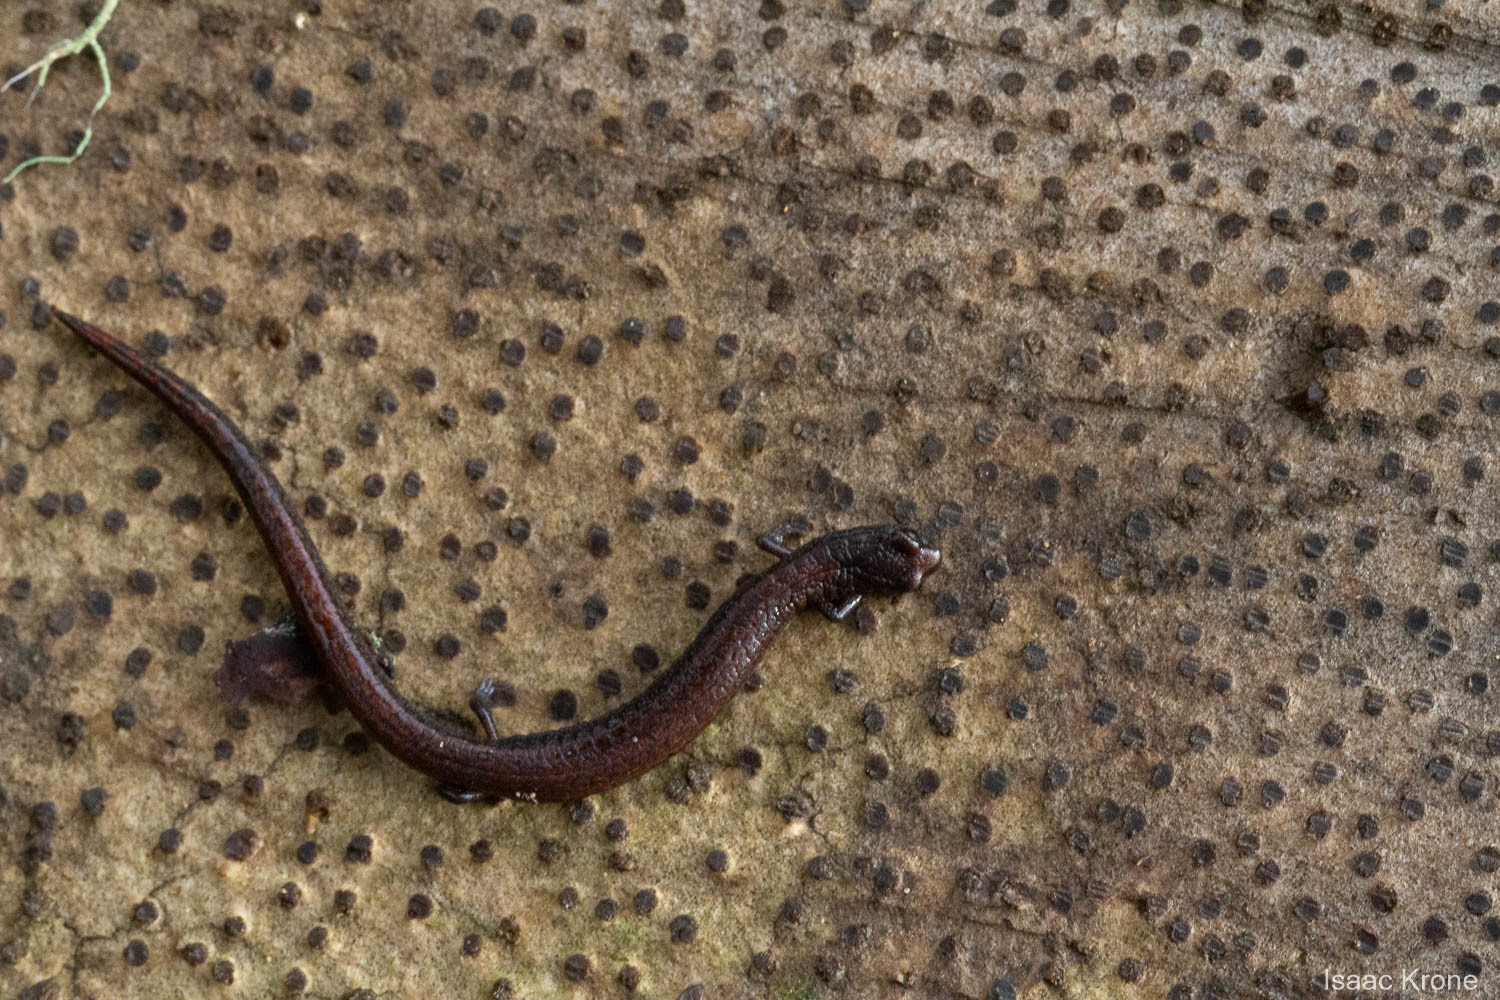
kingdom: Animalia
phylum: Chordata
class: Amphibia
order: Caudata
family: Plethodontidae
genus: Batrachoseps
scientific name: Batrachoseps attenuatus
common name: California slender salamander
